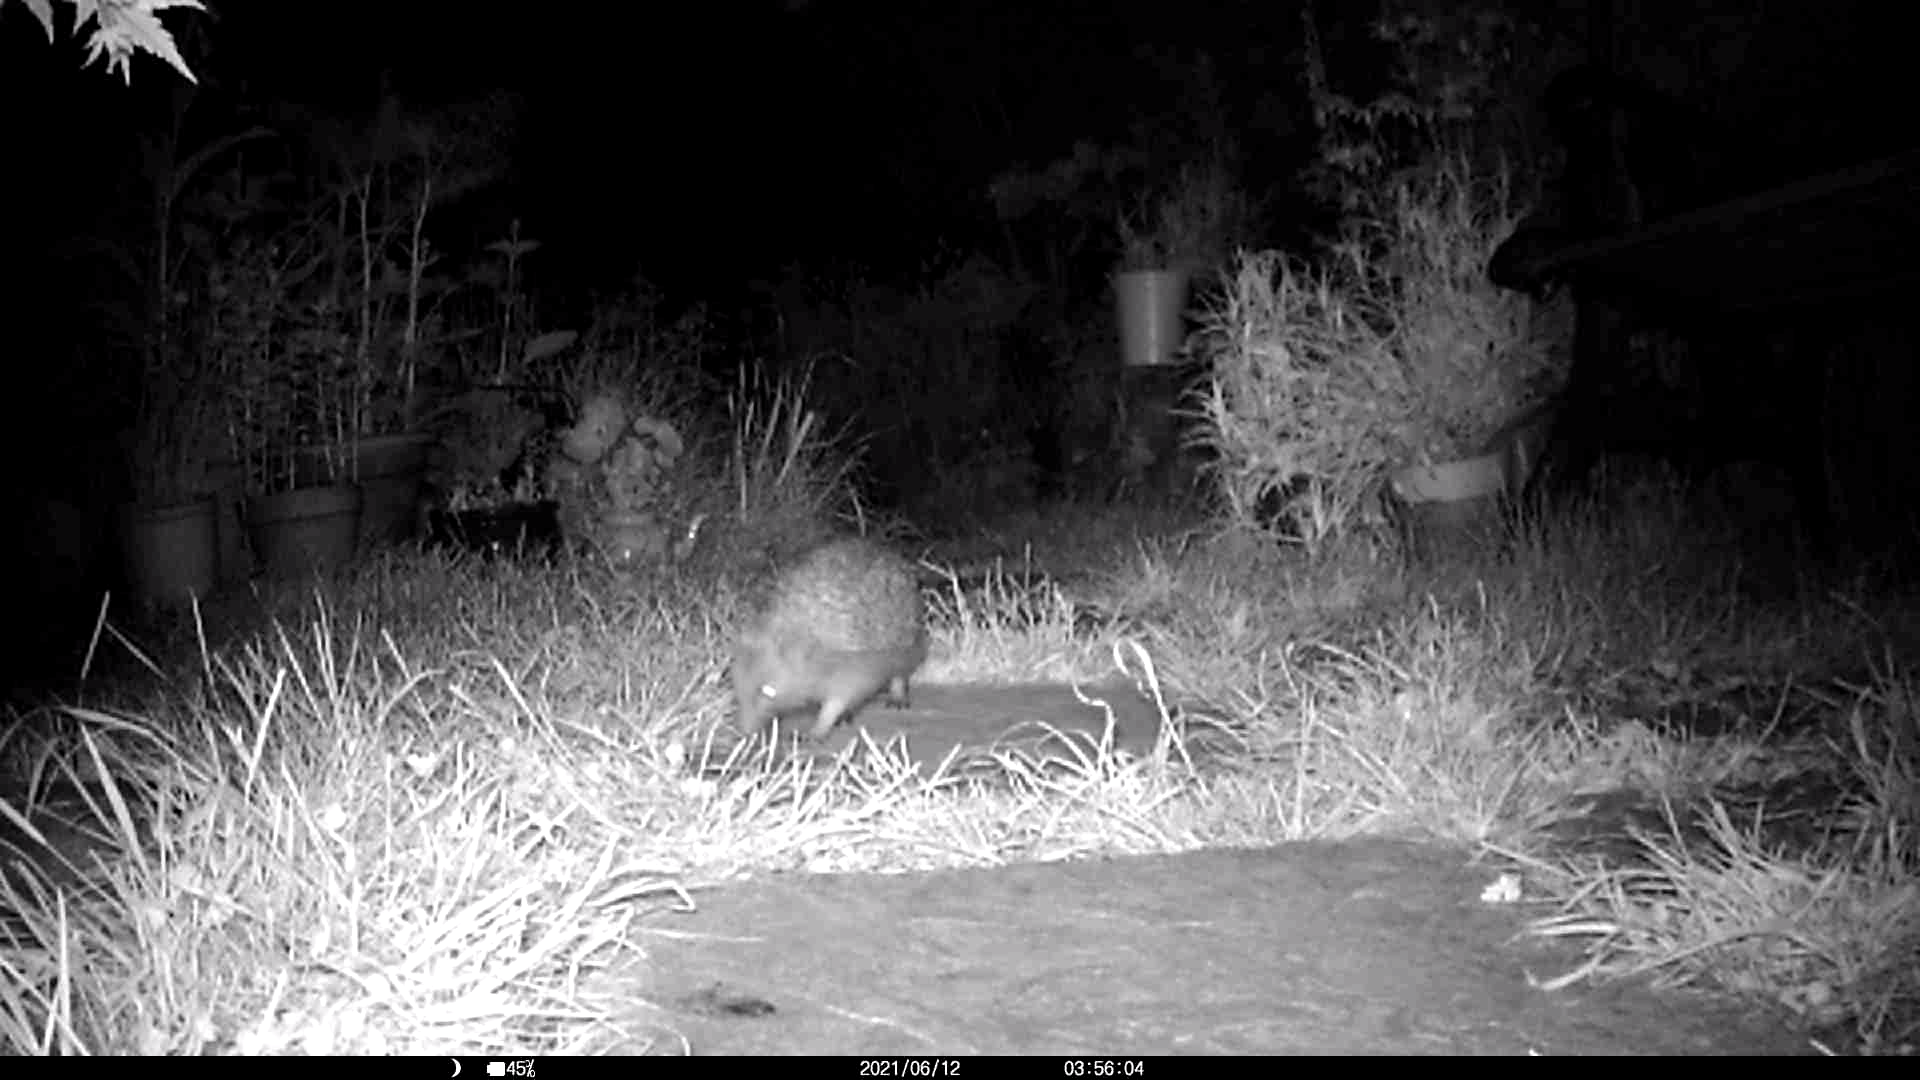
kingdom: Animalia
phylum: Chordata
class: Mammalia
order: Erinaceomorpha
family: Erinaceidae
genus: Erinaceus
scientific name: Erinaceus europaeus
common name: West european hedgehog
